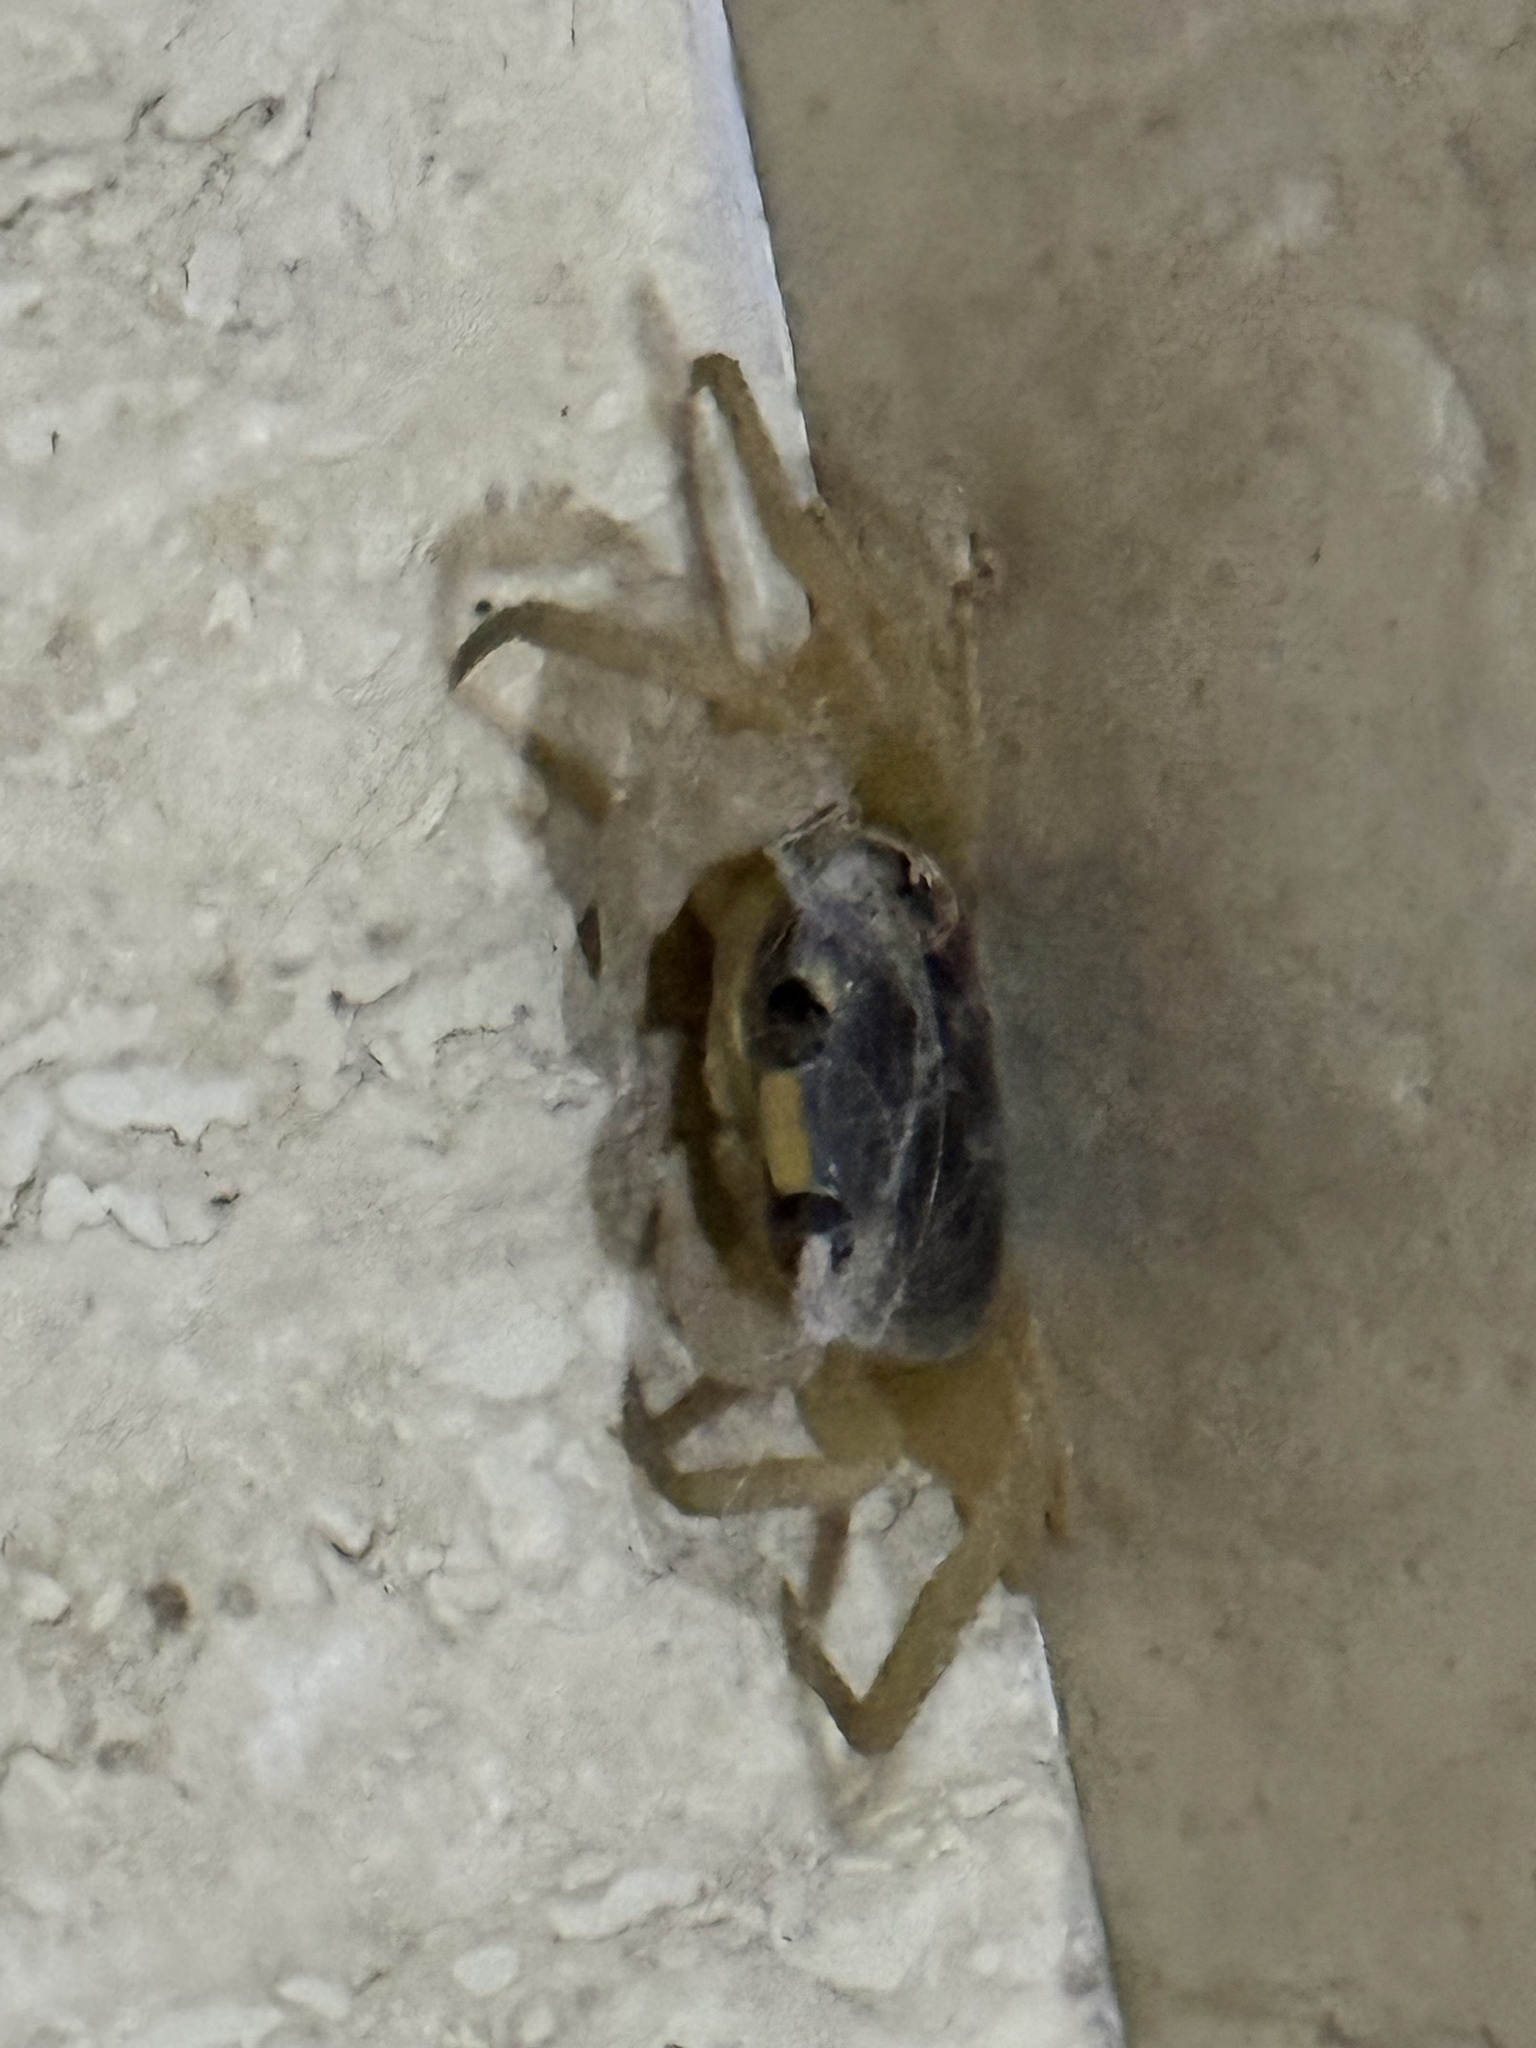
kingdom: Animalia
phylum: Arthropoda
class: Malacostraca
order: Decapoda
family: Gecarcinidae
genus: Gecarcinus
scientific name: Gecarcinus quadratus
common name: Halloween crab
